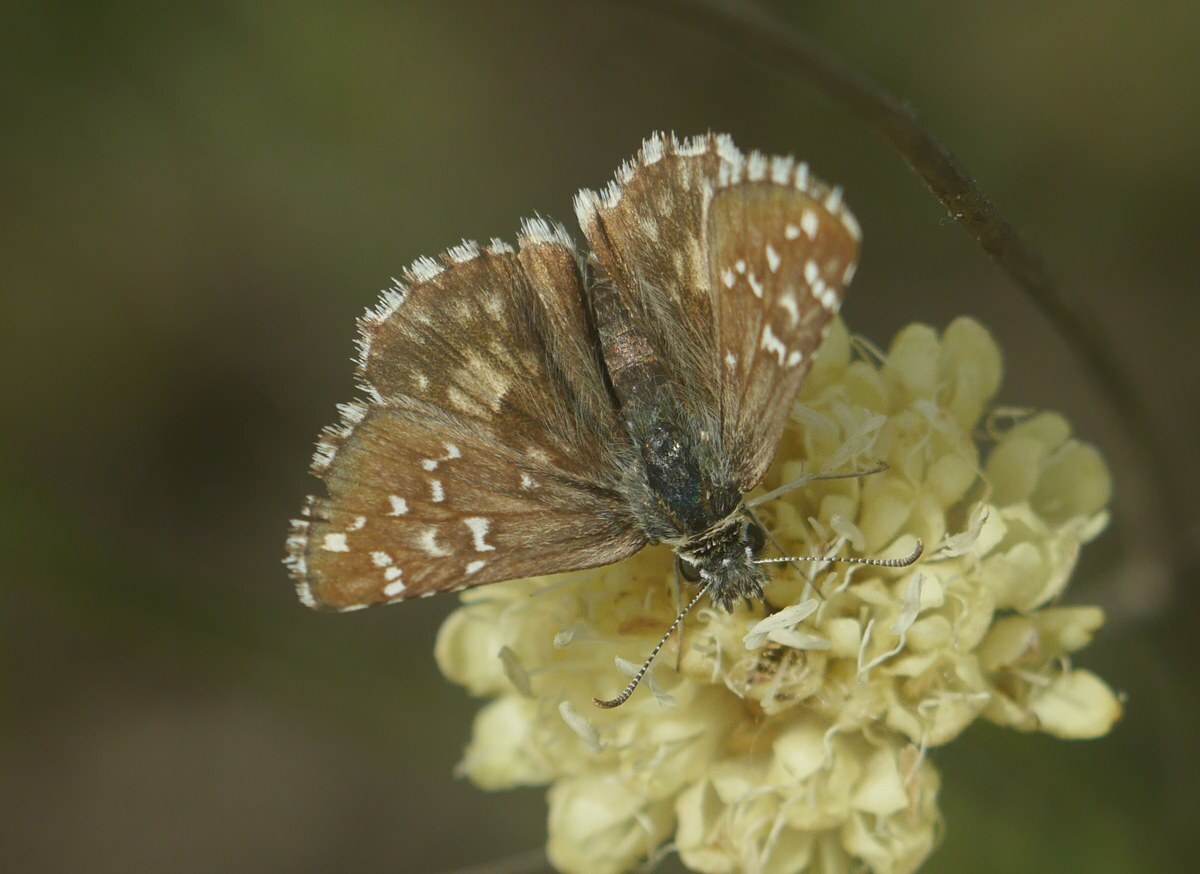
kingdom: Animalia
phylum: Arthropoda
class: Insecta
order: Lepidoptera
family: Hesperiidae
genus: Pyrgus
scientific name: Pyrgus armoricanus
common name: Oberthür's grizzled skipper
